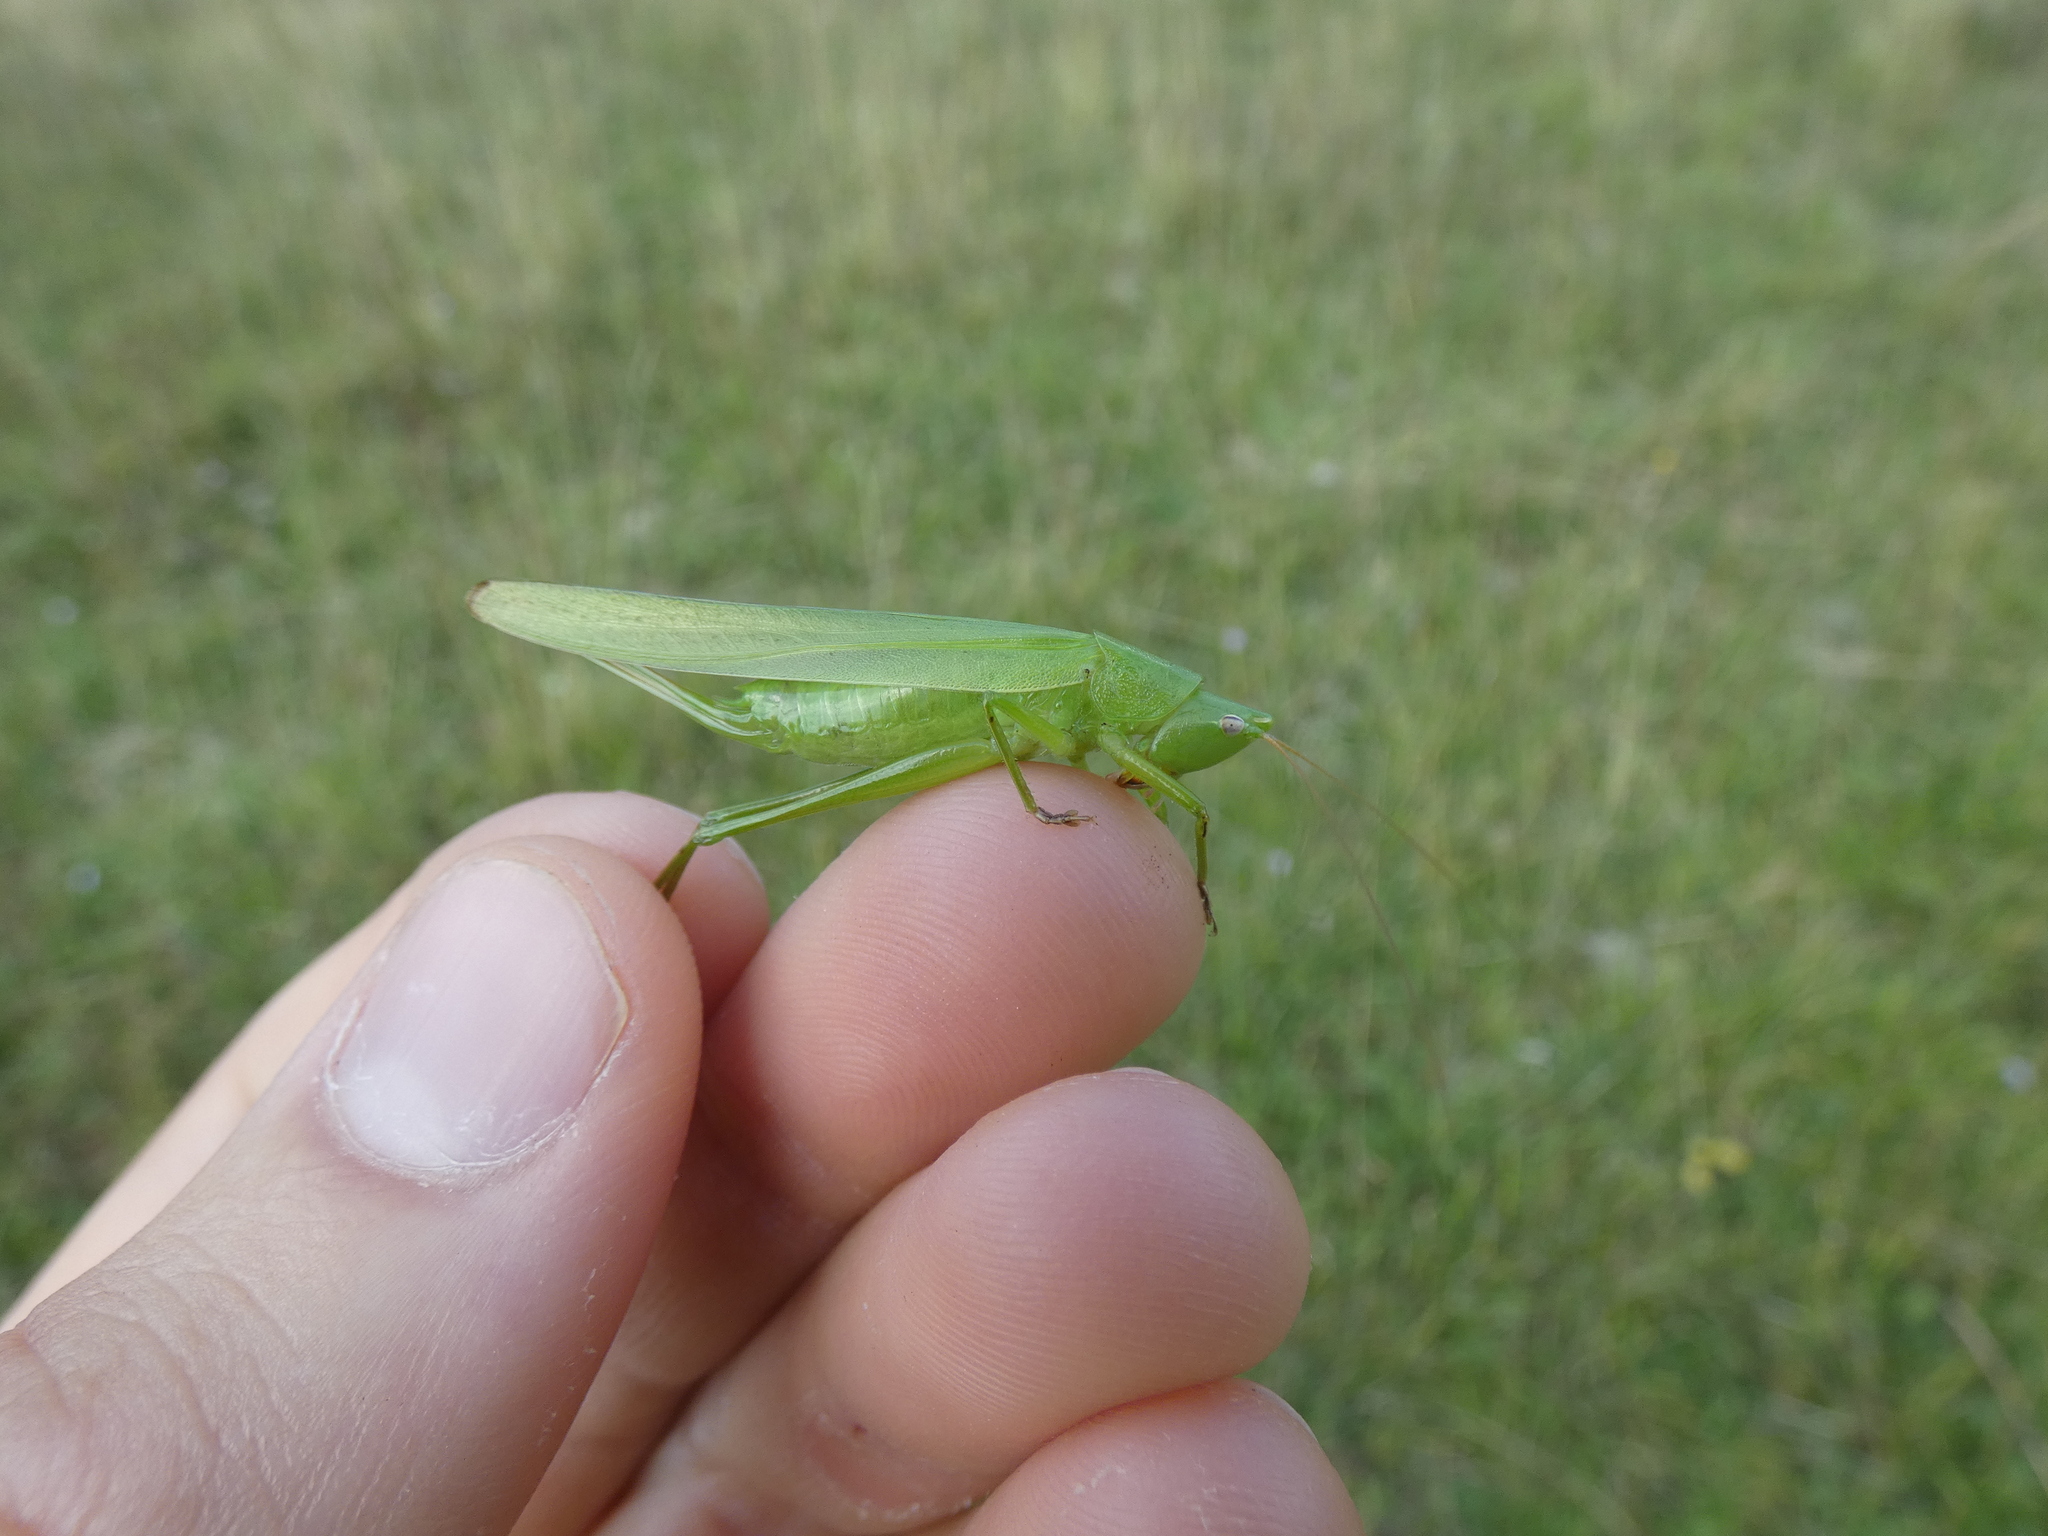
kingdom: Animalia
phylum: Arthropoda
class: Insecta
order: Orthoptera
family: Tettigoniidae
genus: Ruspolia
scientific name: Ruspolia nitidula
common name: Large conehead
